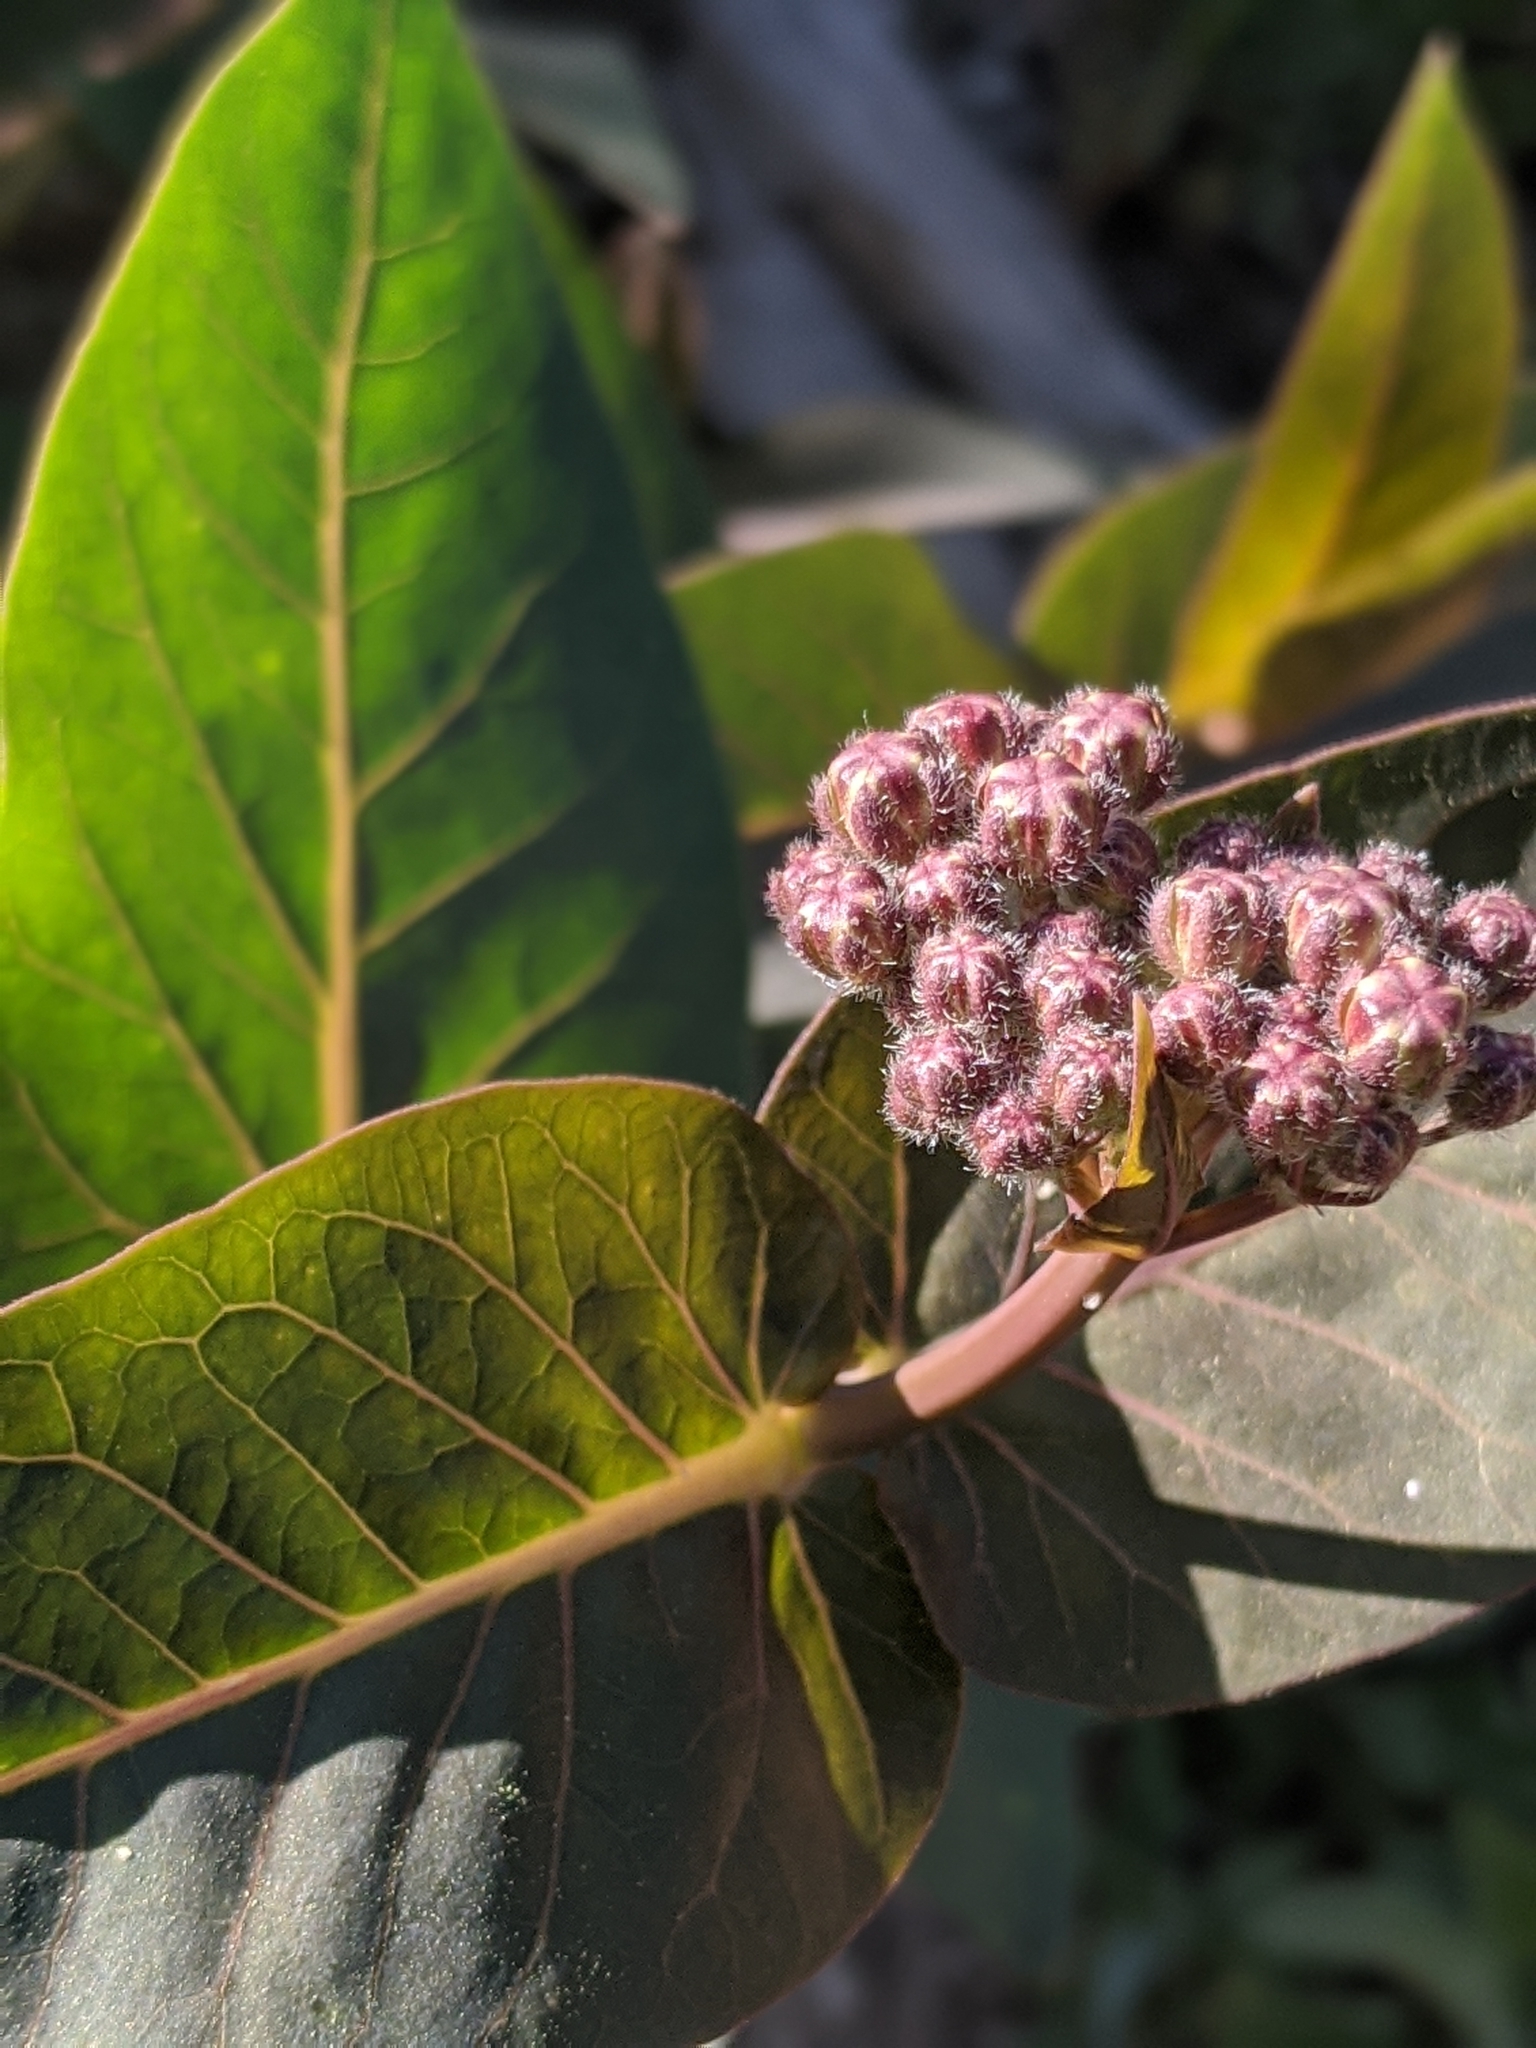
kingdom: Plantae
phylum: Tracheophyta
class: Magnoliopsida
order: Gentianales
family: Apocynaceae
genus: Asclepias
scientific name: Asclepias cordifolia
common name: Purple milkweed
